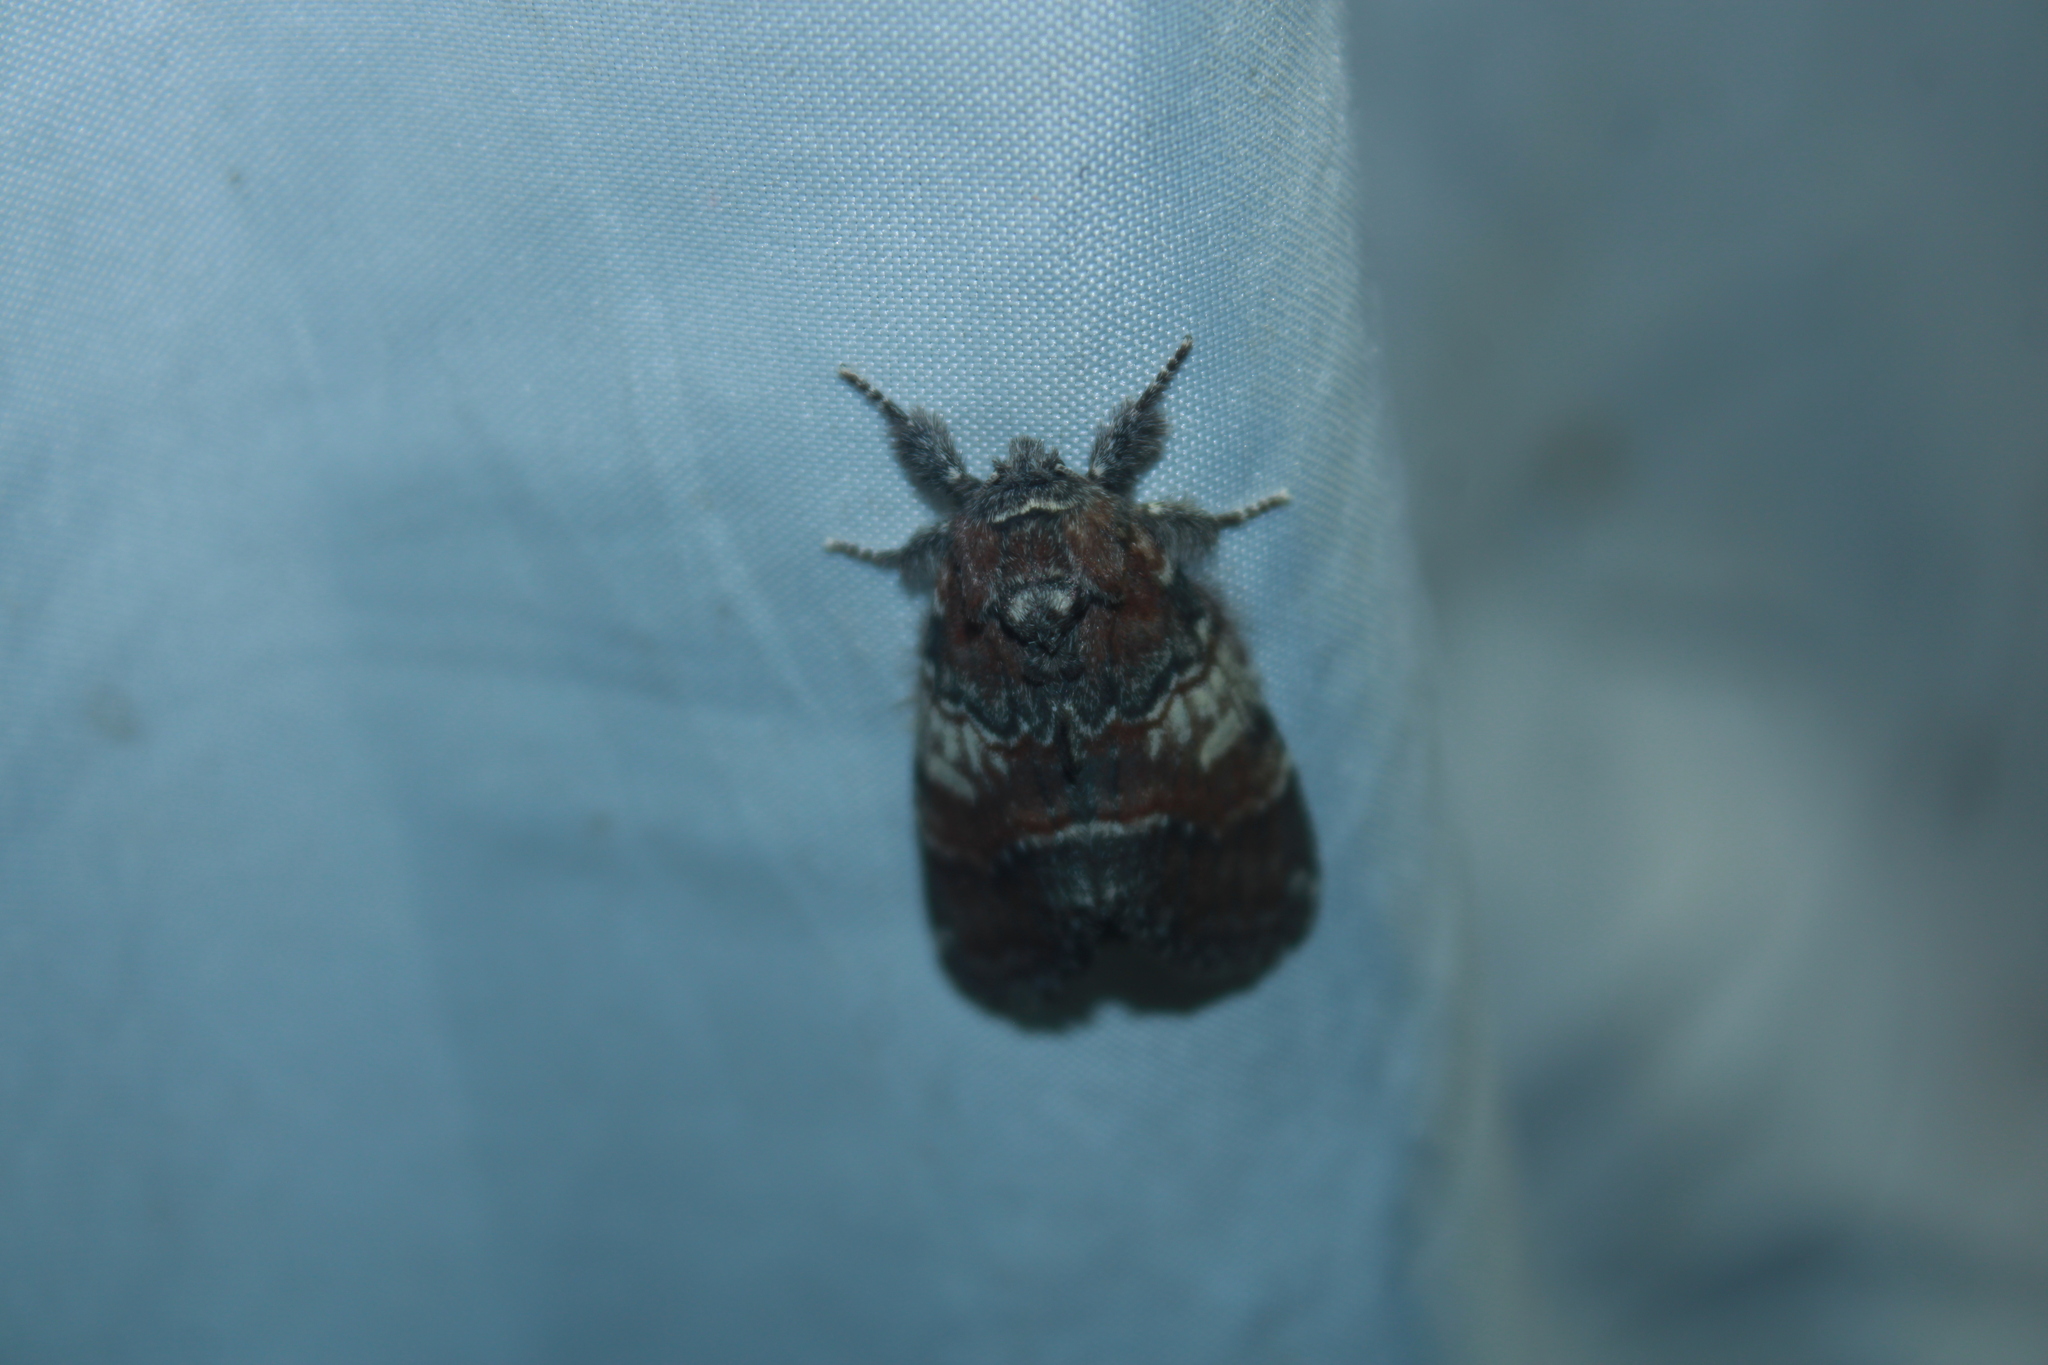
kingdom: Animalia
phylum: Arthropoda
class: Insecta
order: Lepidoptera
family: Notodontidae
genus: Peridea
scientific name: Peridea ferruginea
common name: Chocolate prominent
